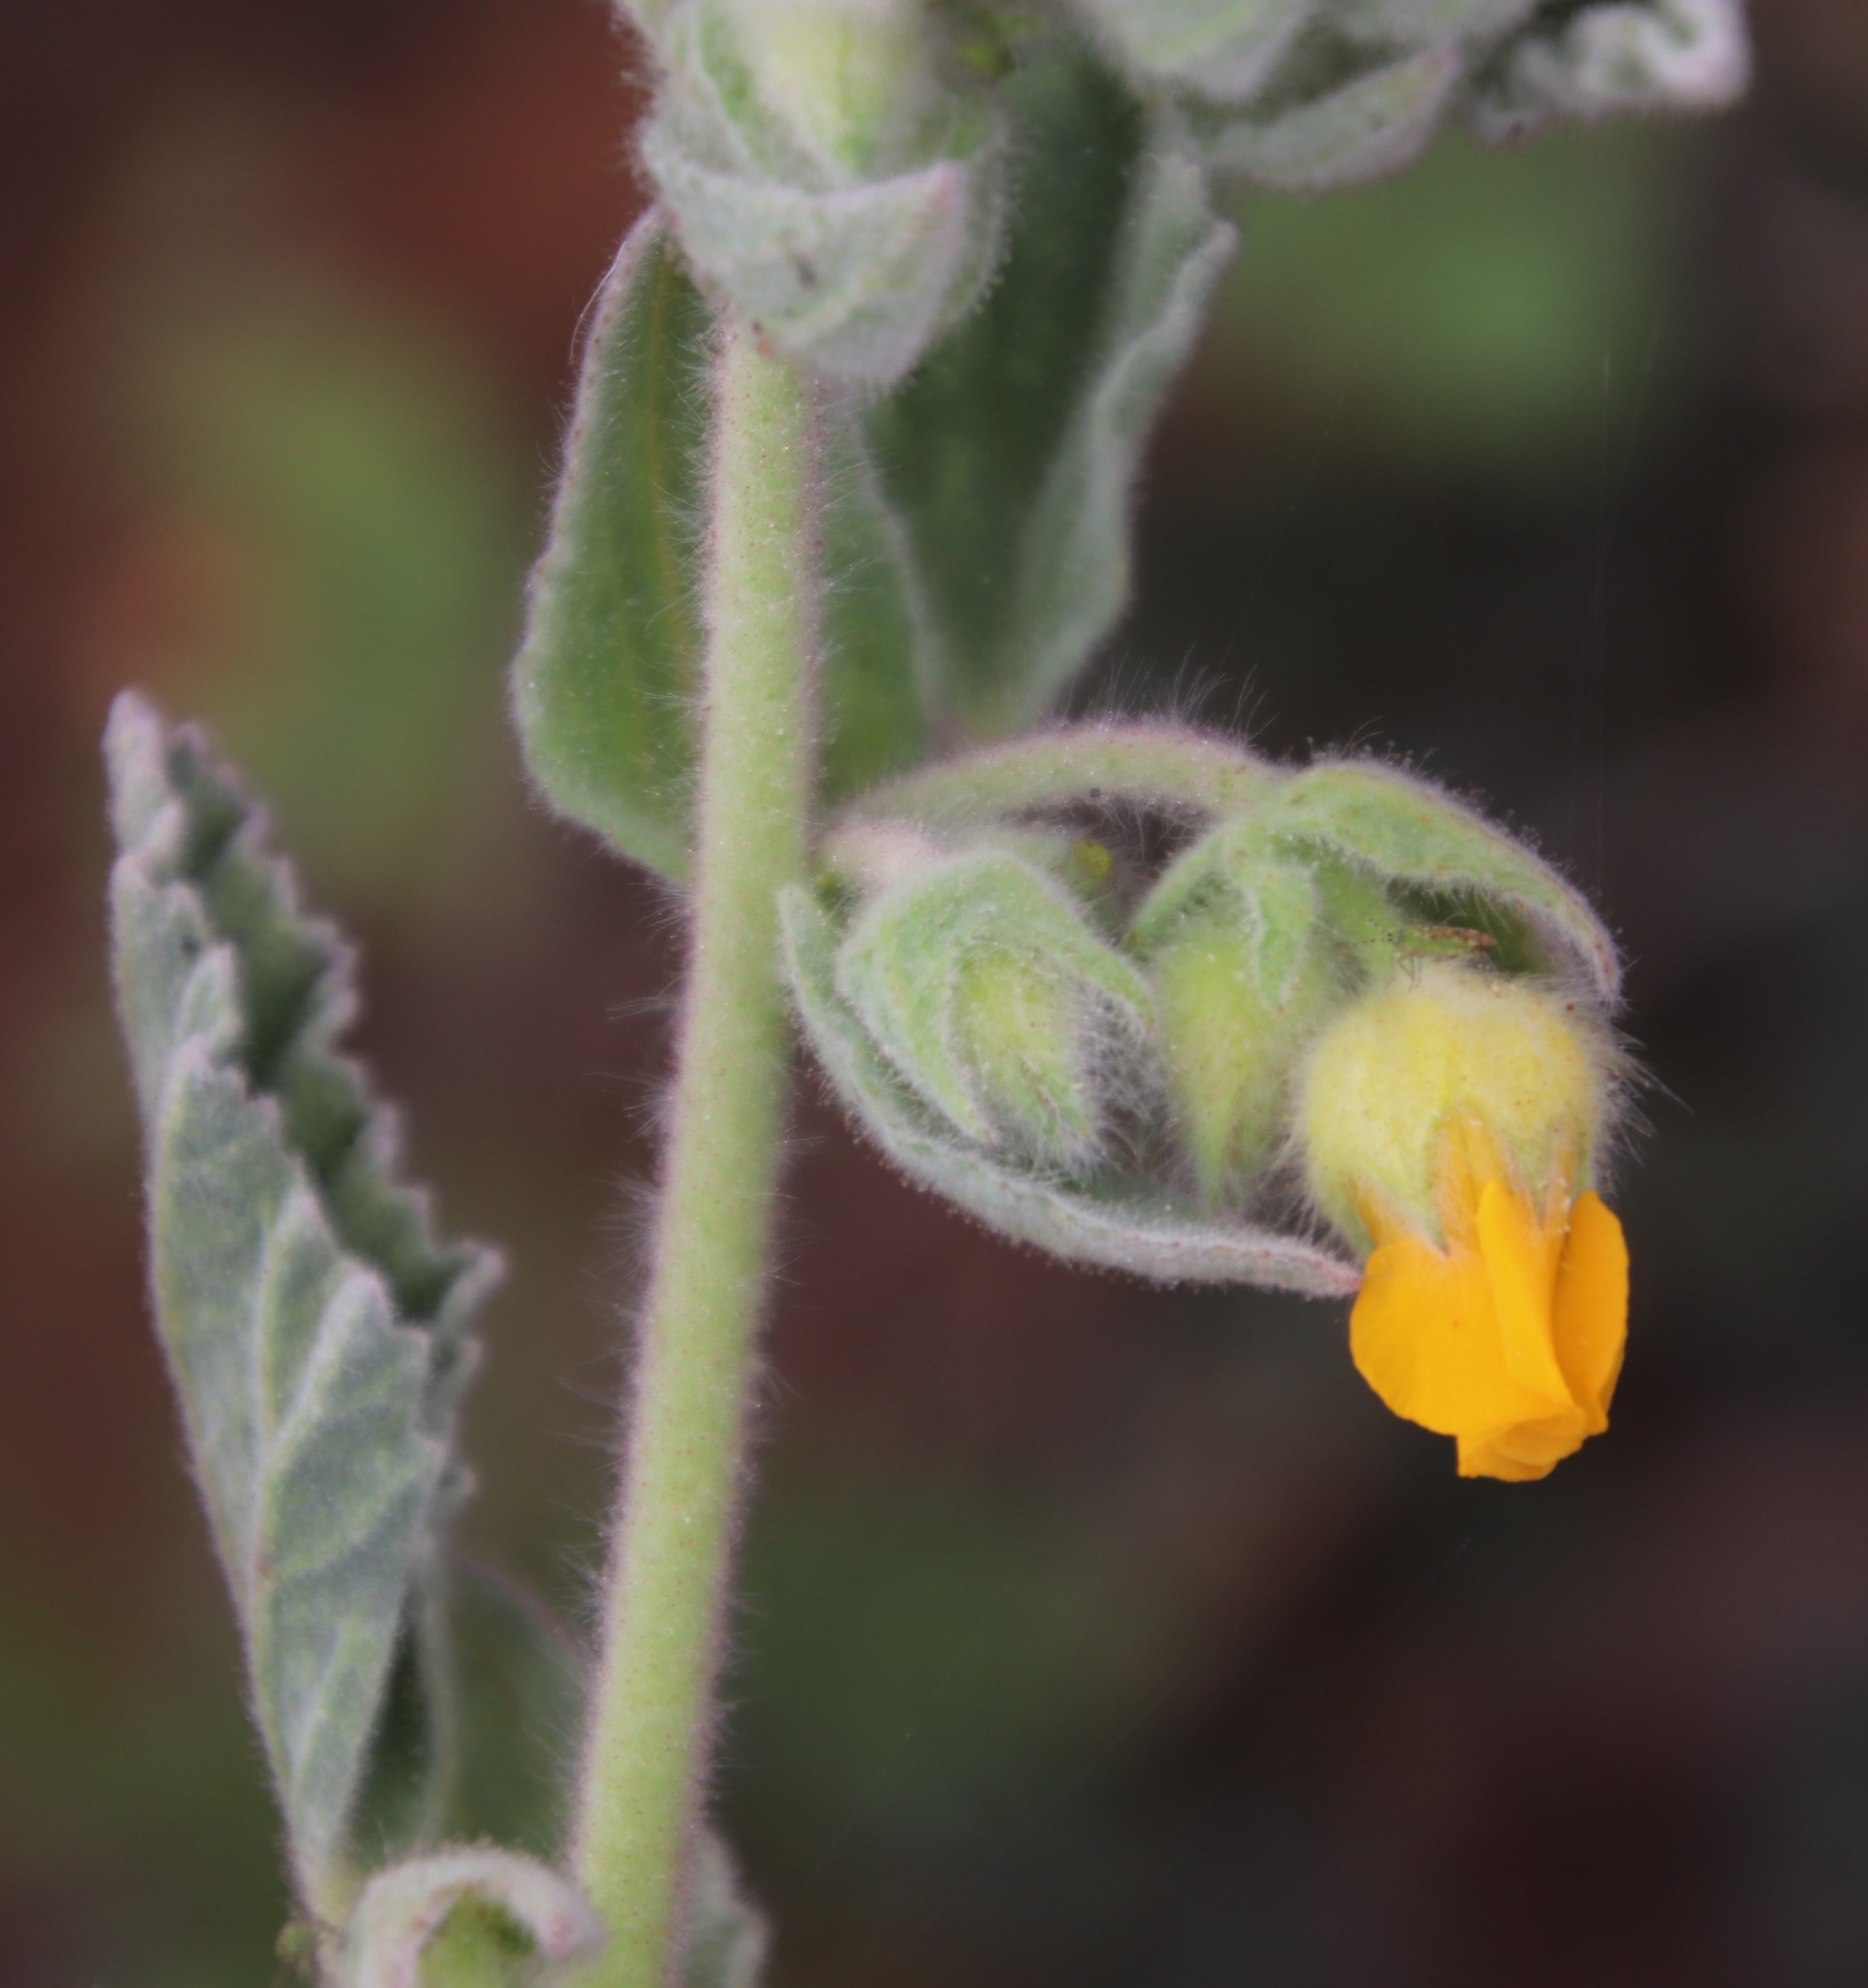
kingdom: Plantae
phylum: Tracheophyta
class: Magnoliopsida
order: Malvales
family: Malvaceae
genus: Hermannia
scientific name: Hermannia althaeifolia
